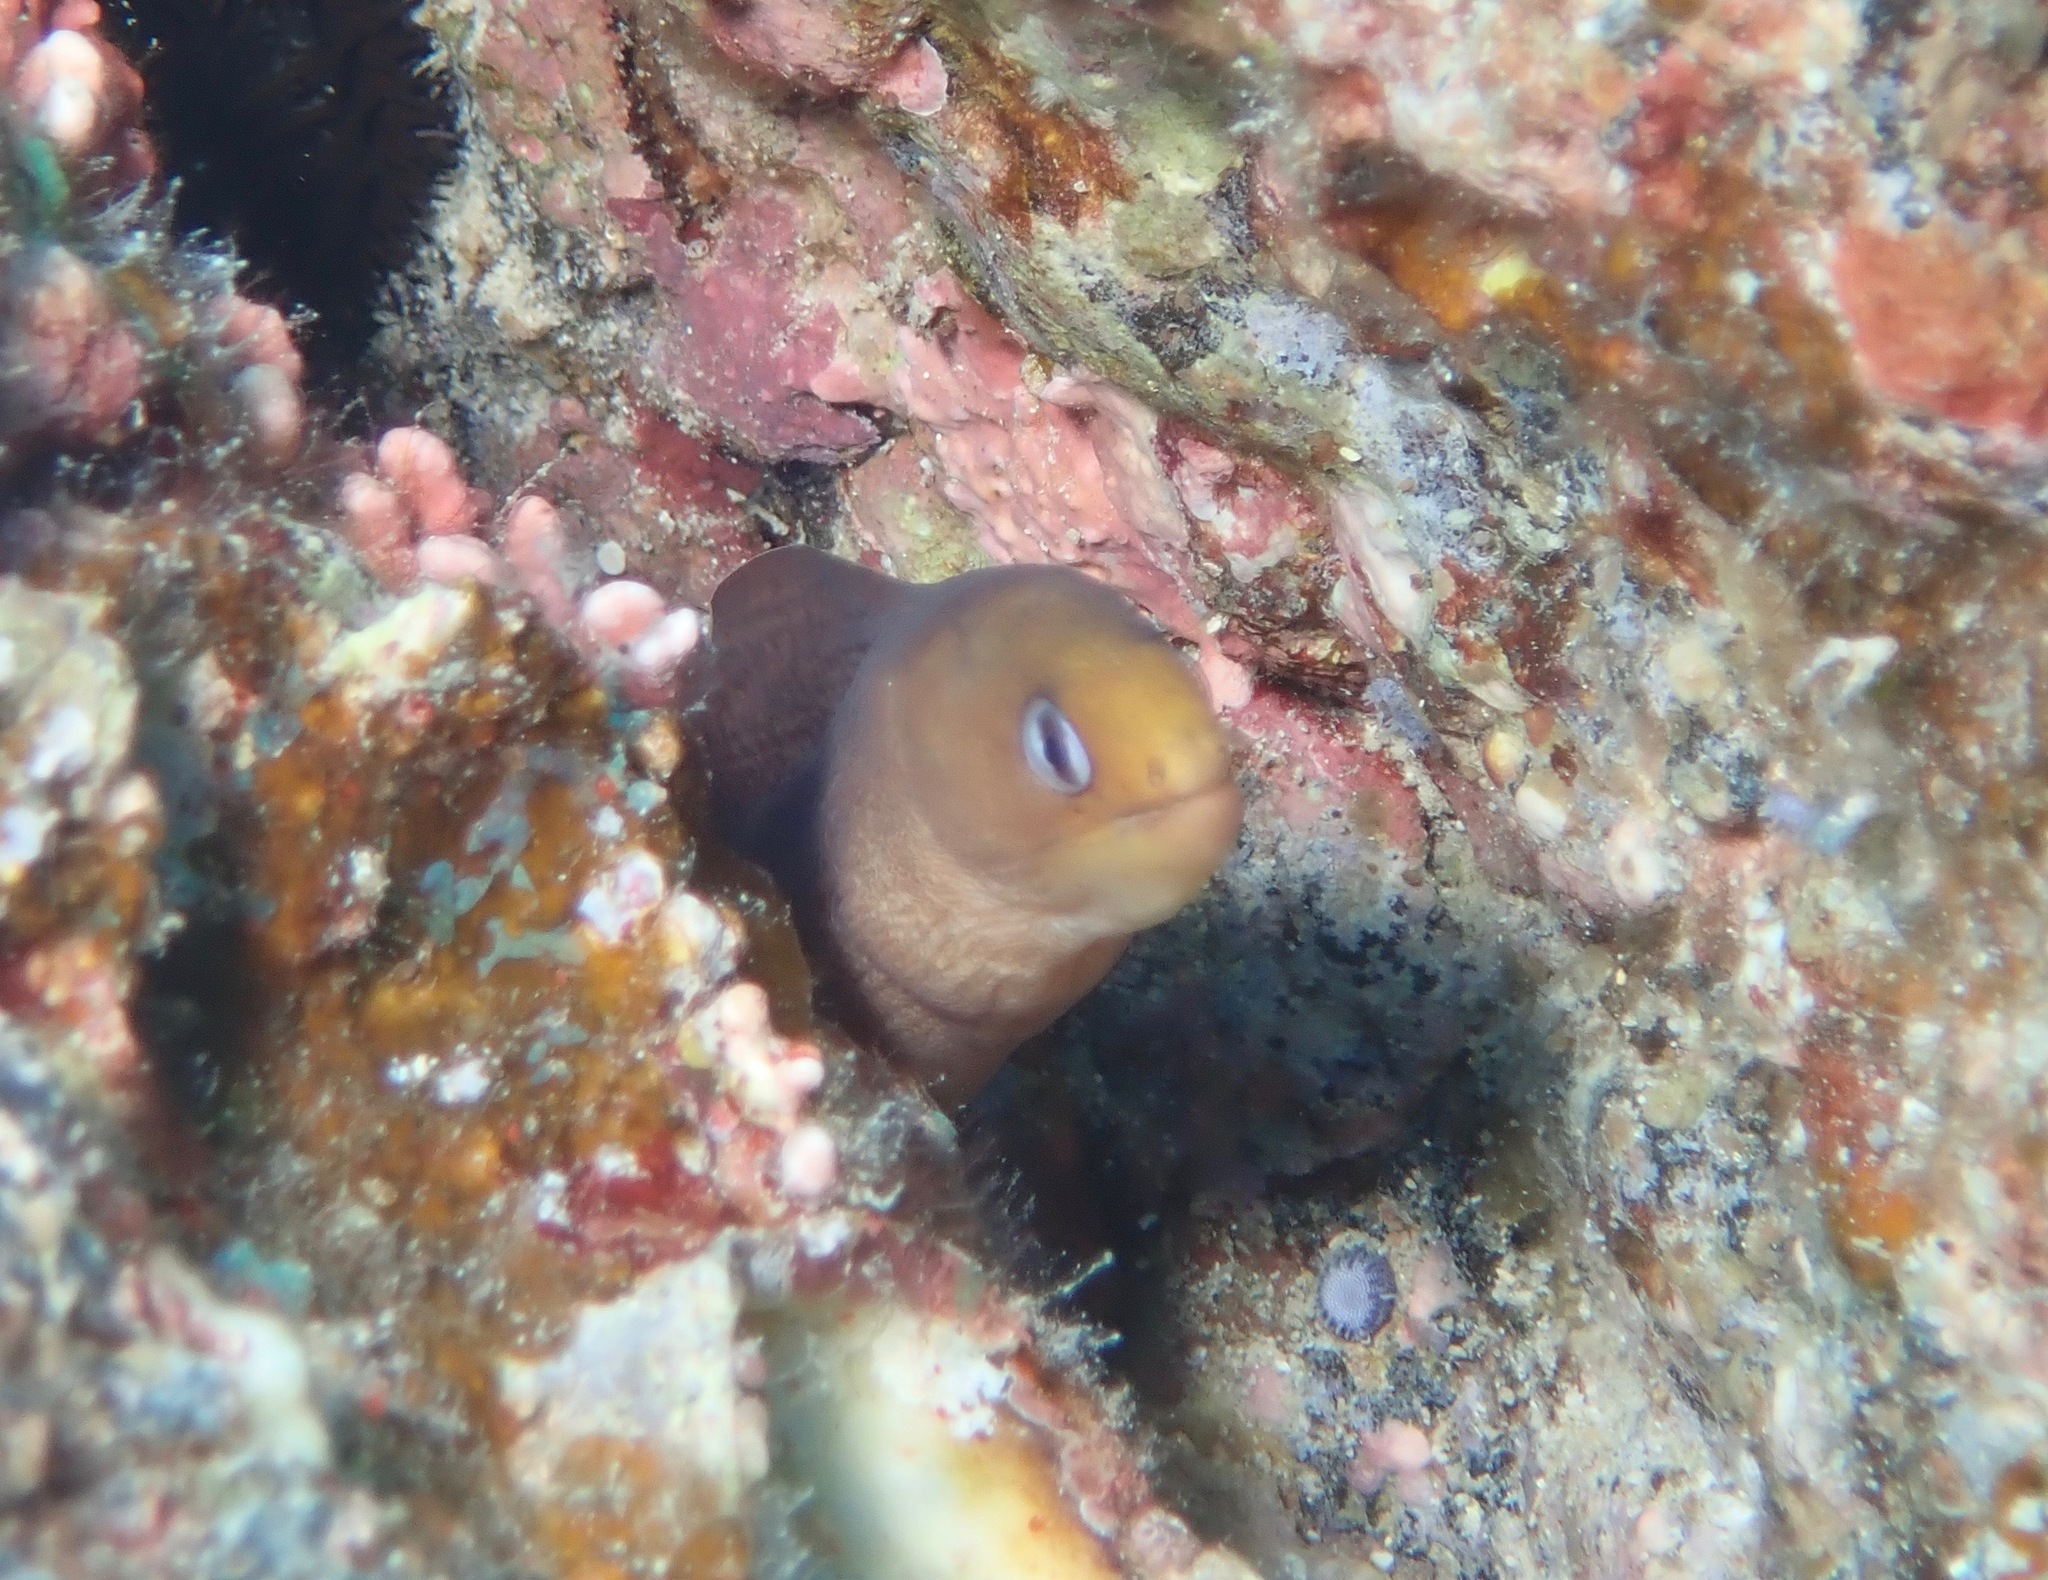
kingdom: Animalia
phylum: Chordata
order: Anguilliformes
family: Muraenidae
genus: Gymnothorax
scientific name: Gymnothorax melatremus
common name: Dwarf moray
